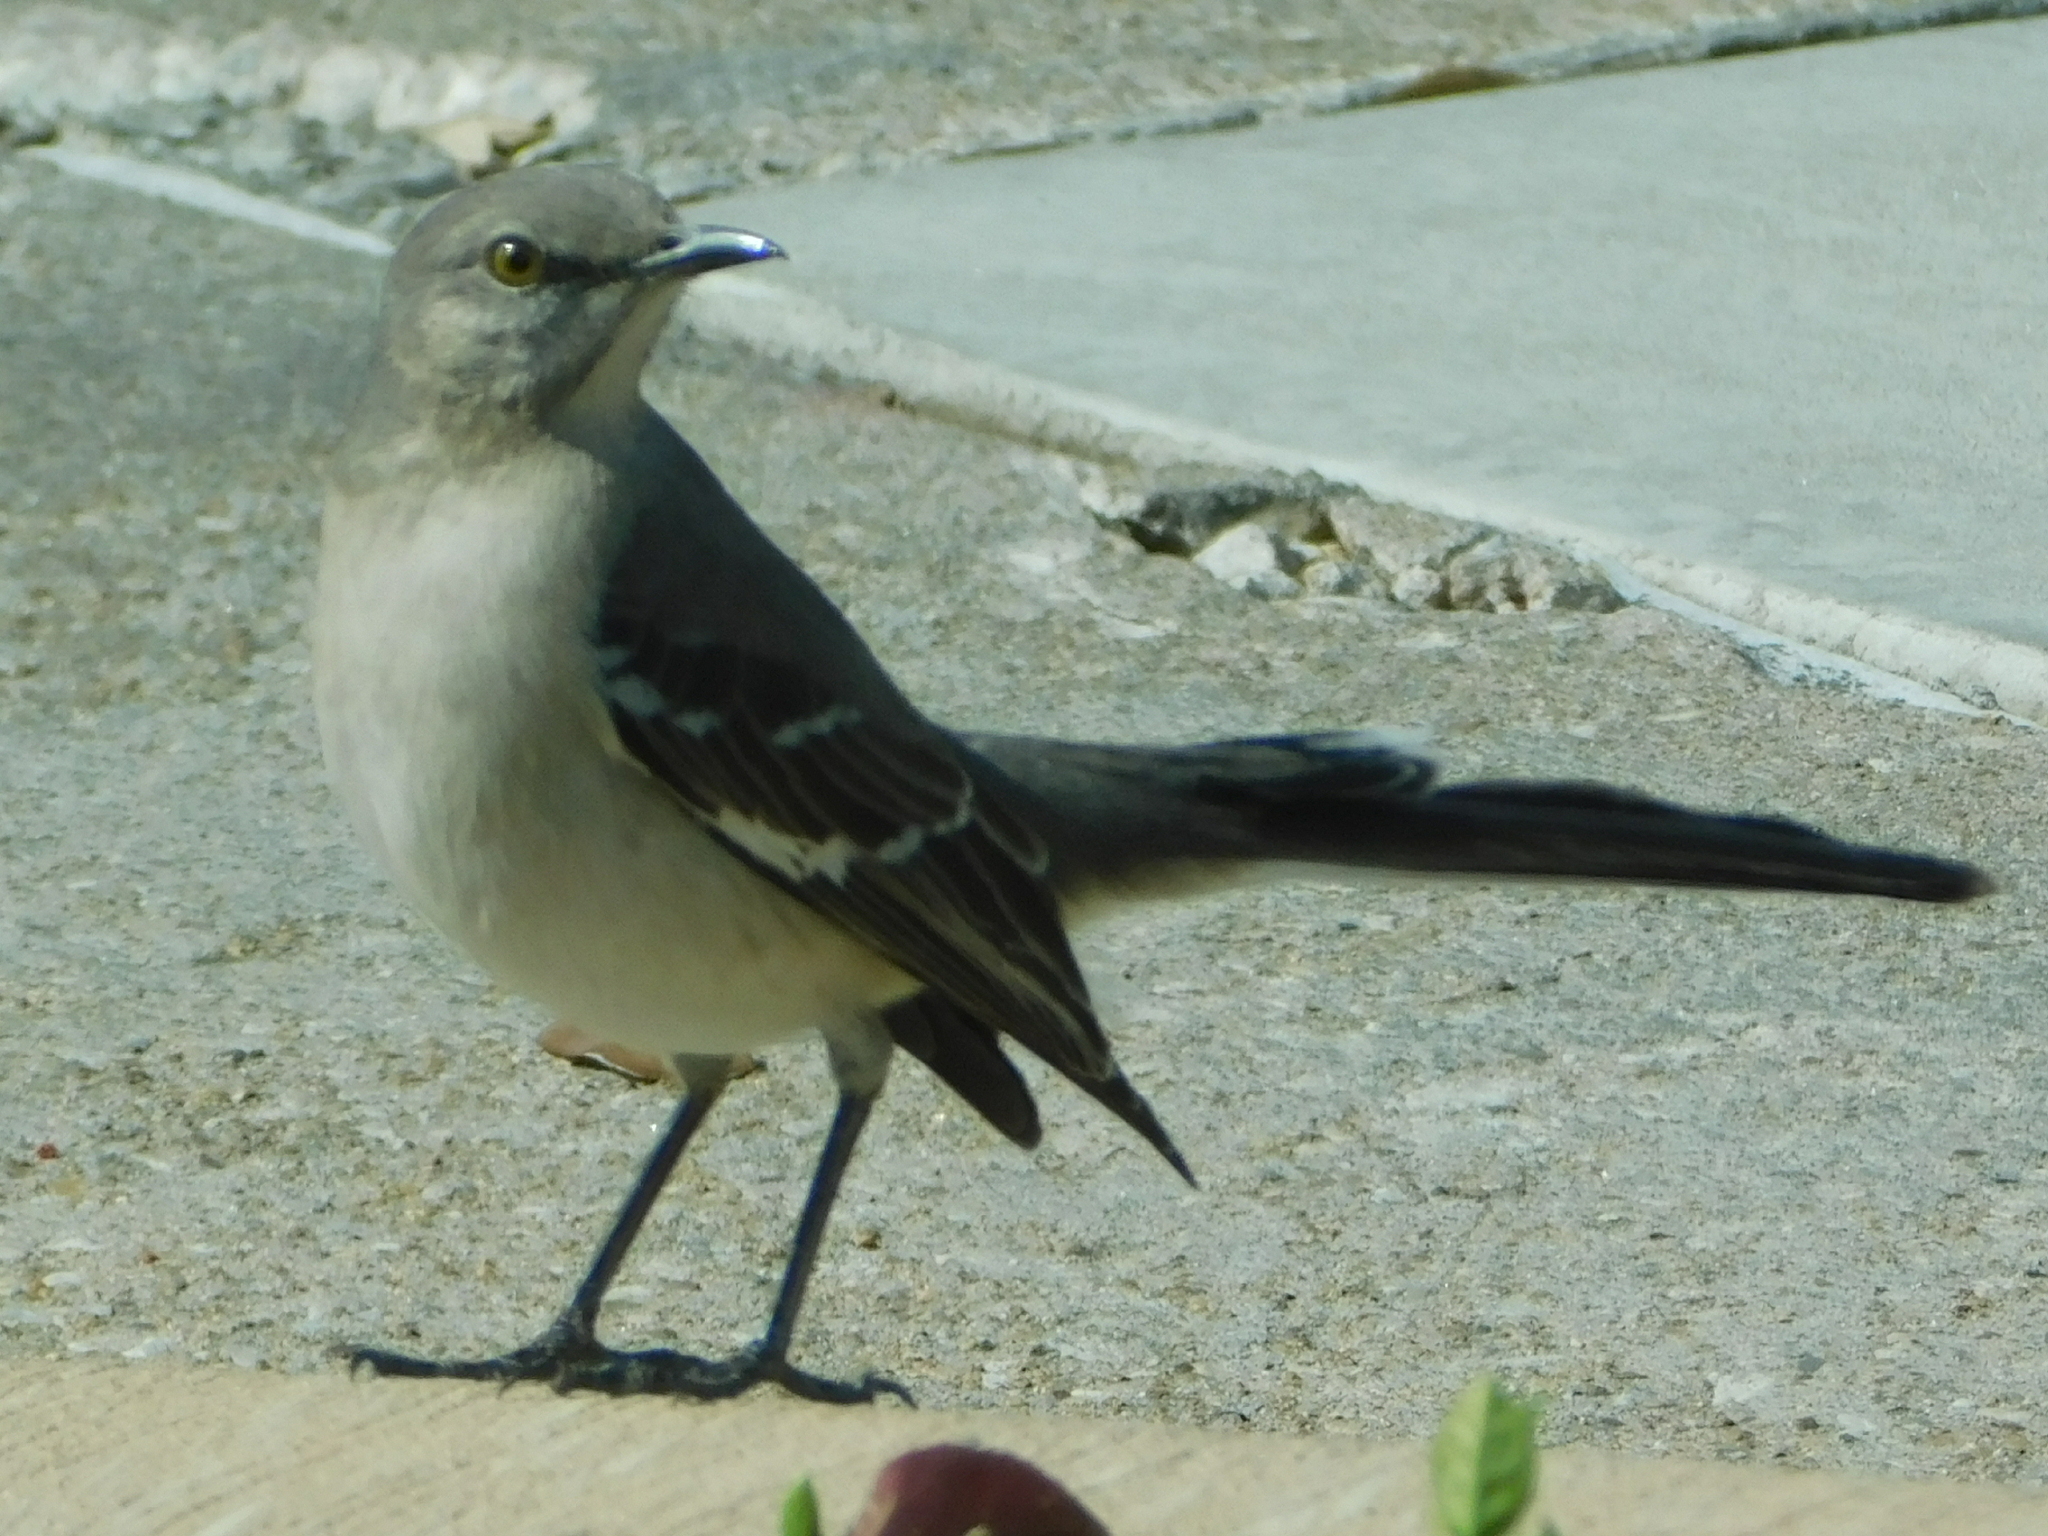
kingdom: Animalia
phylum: Chordata
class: Aves
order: Passeriformes
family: Mimidae
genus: Mimus
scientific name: Mimus polyglottos
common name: Northern mockingbird
